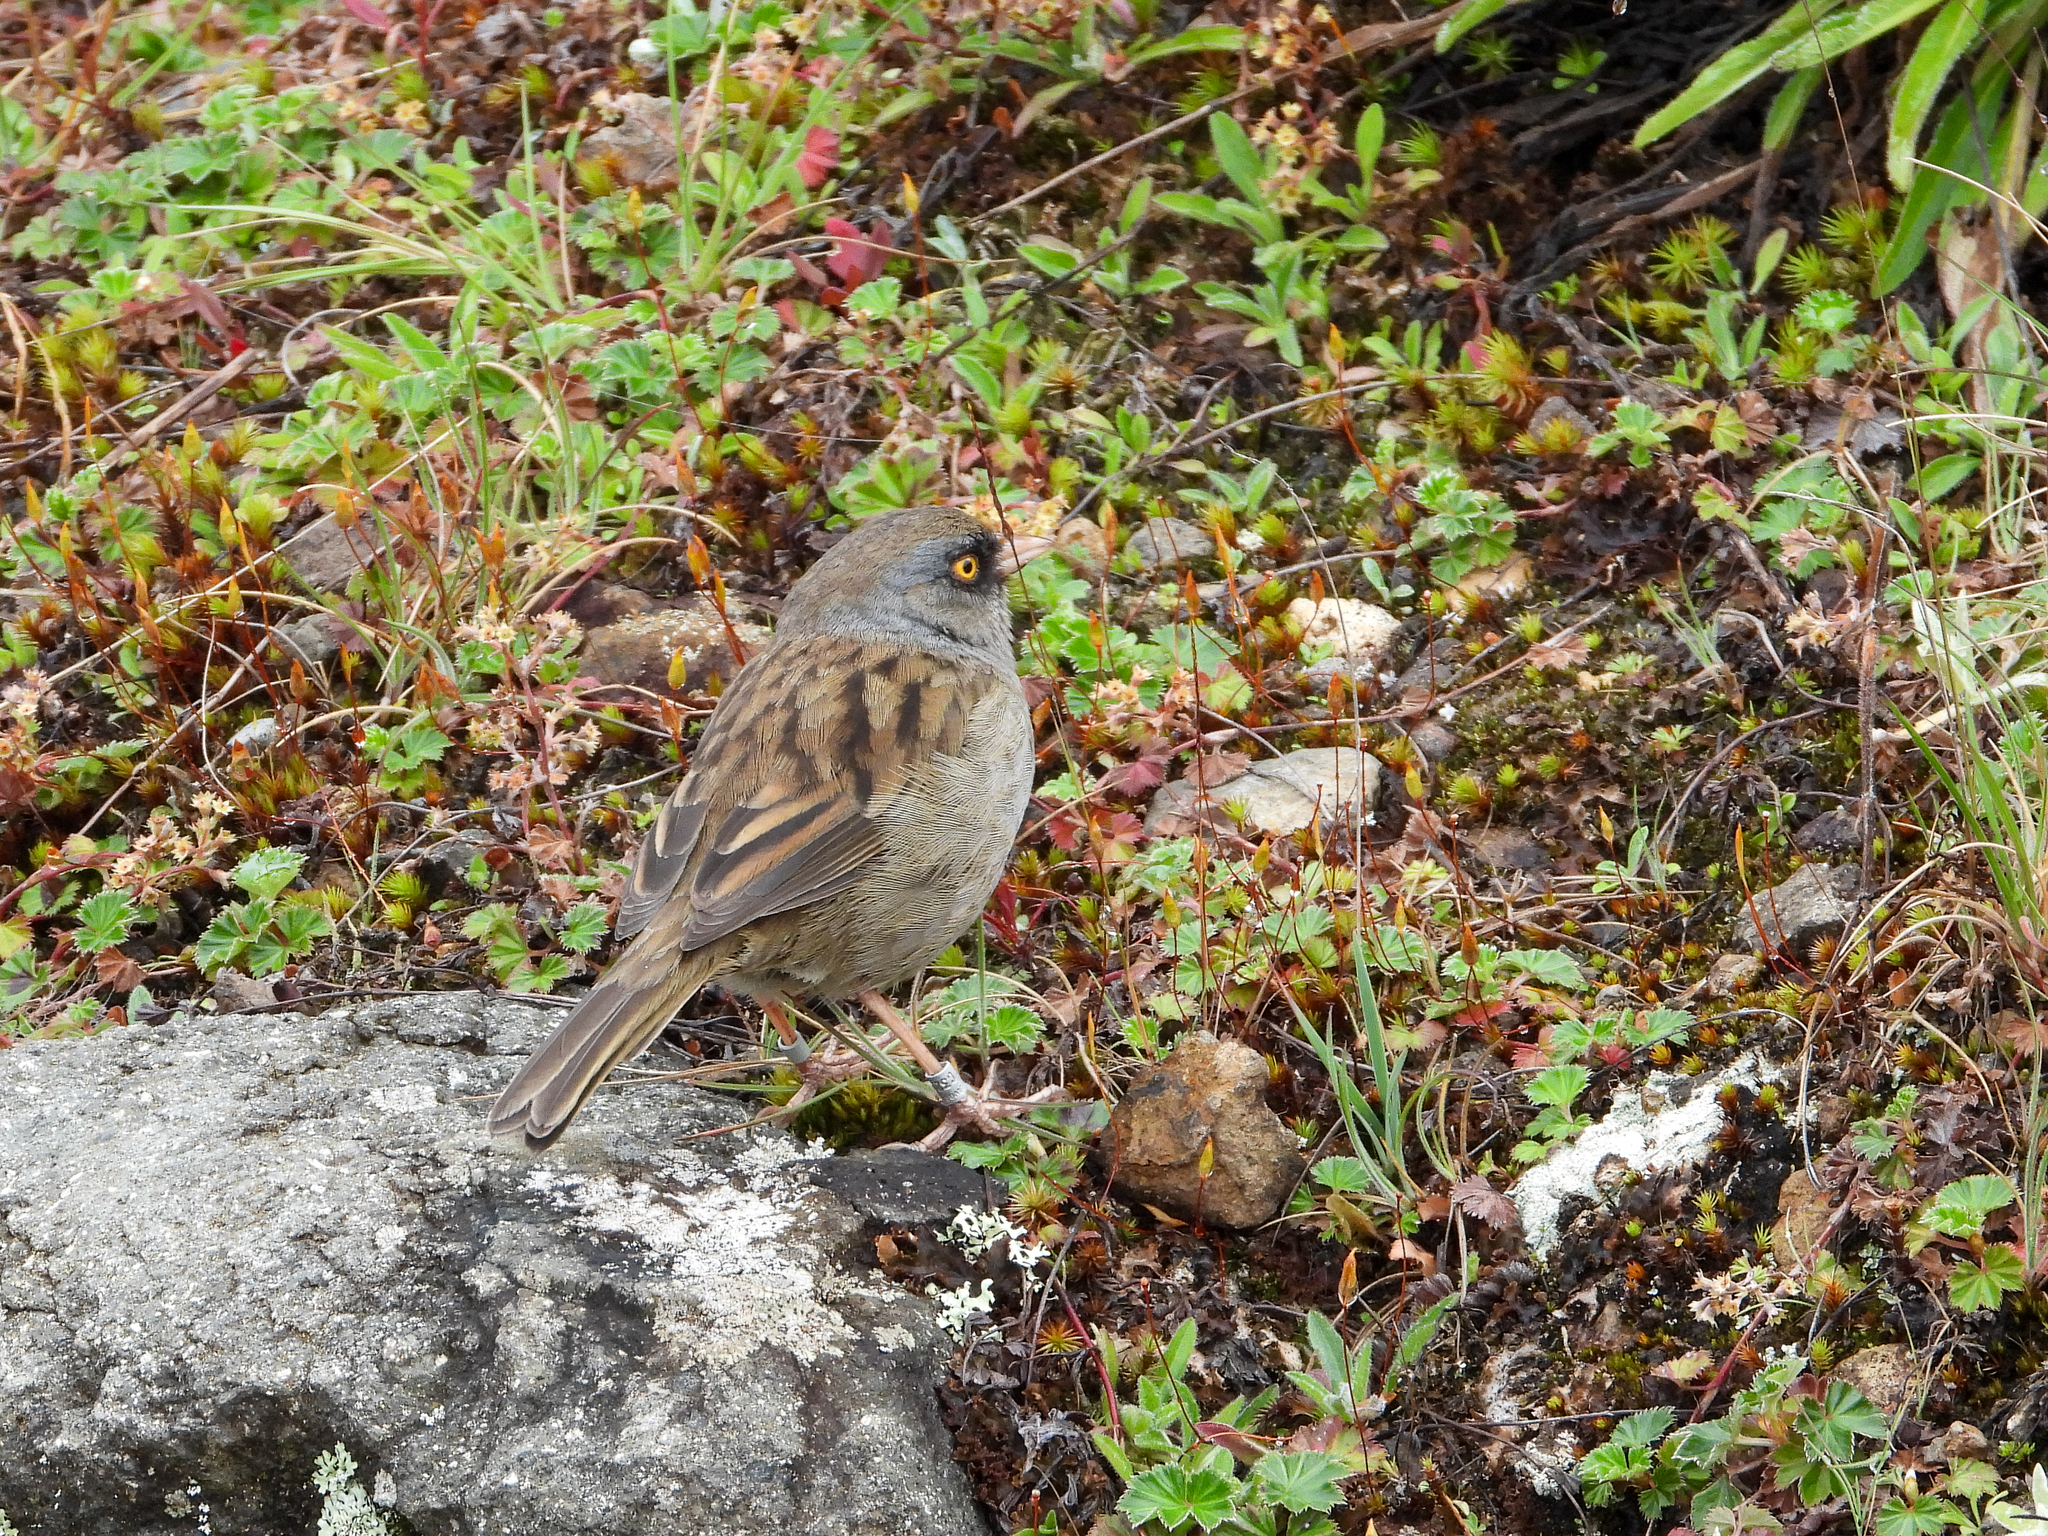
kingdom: Animalia
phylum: Chordata
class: Aves
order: Passeriformes
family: Passerellidae
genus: Junco
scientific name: Junco vulcani
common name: Volcano junco
